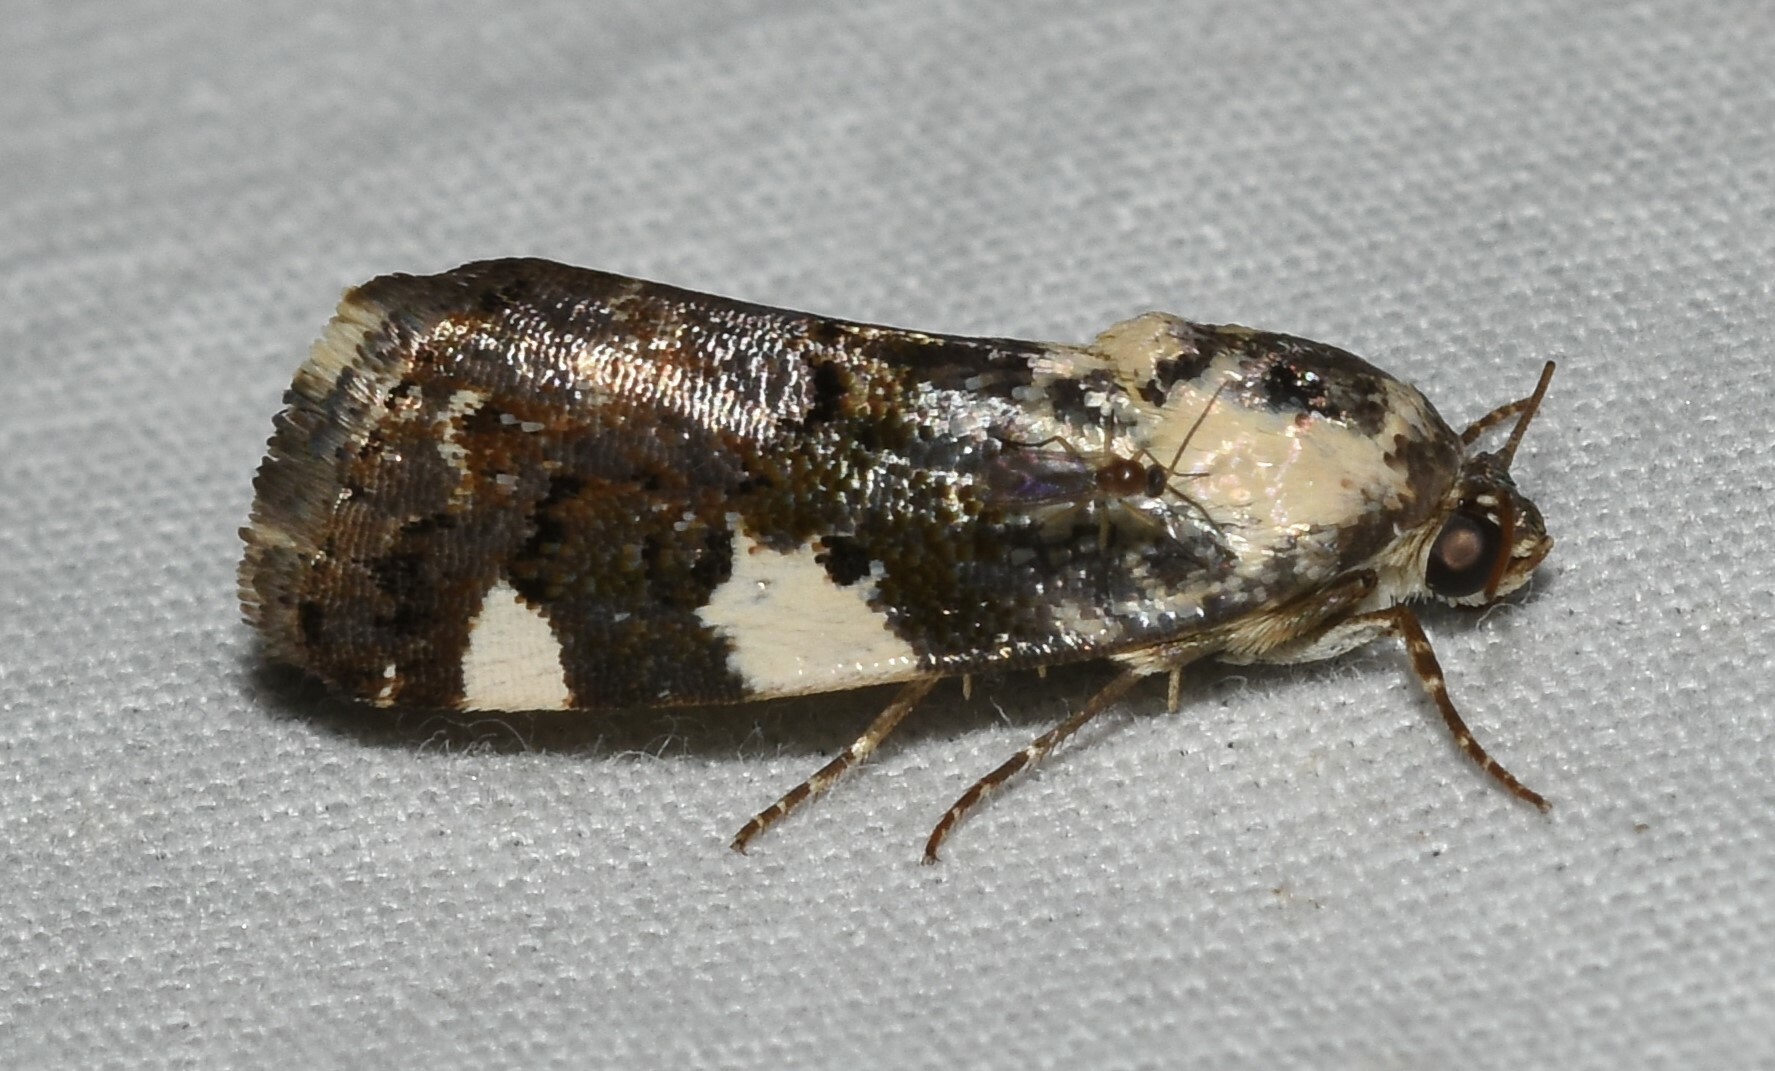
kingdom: Animalia
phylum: Arthropoda
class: Insecta
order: Lepidoptera
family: Noctuidae
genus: Acontia
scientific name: Acontia aprica
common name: Nun
